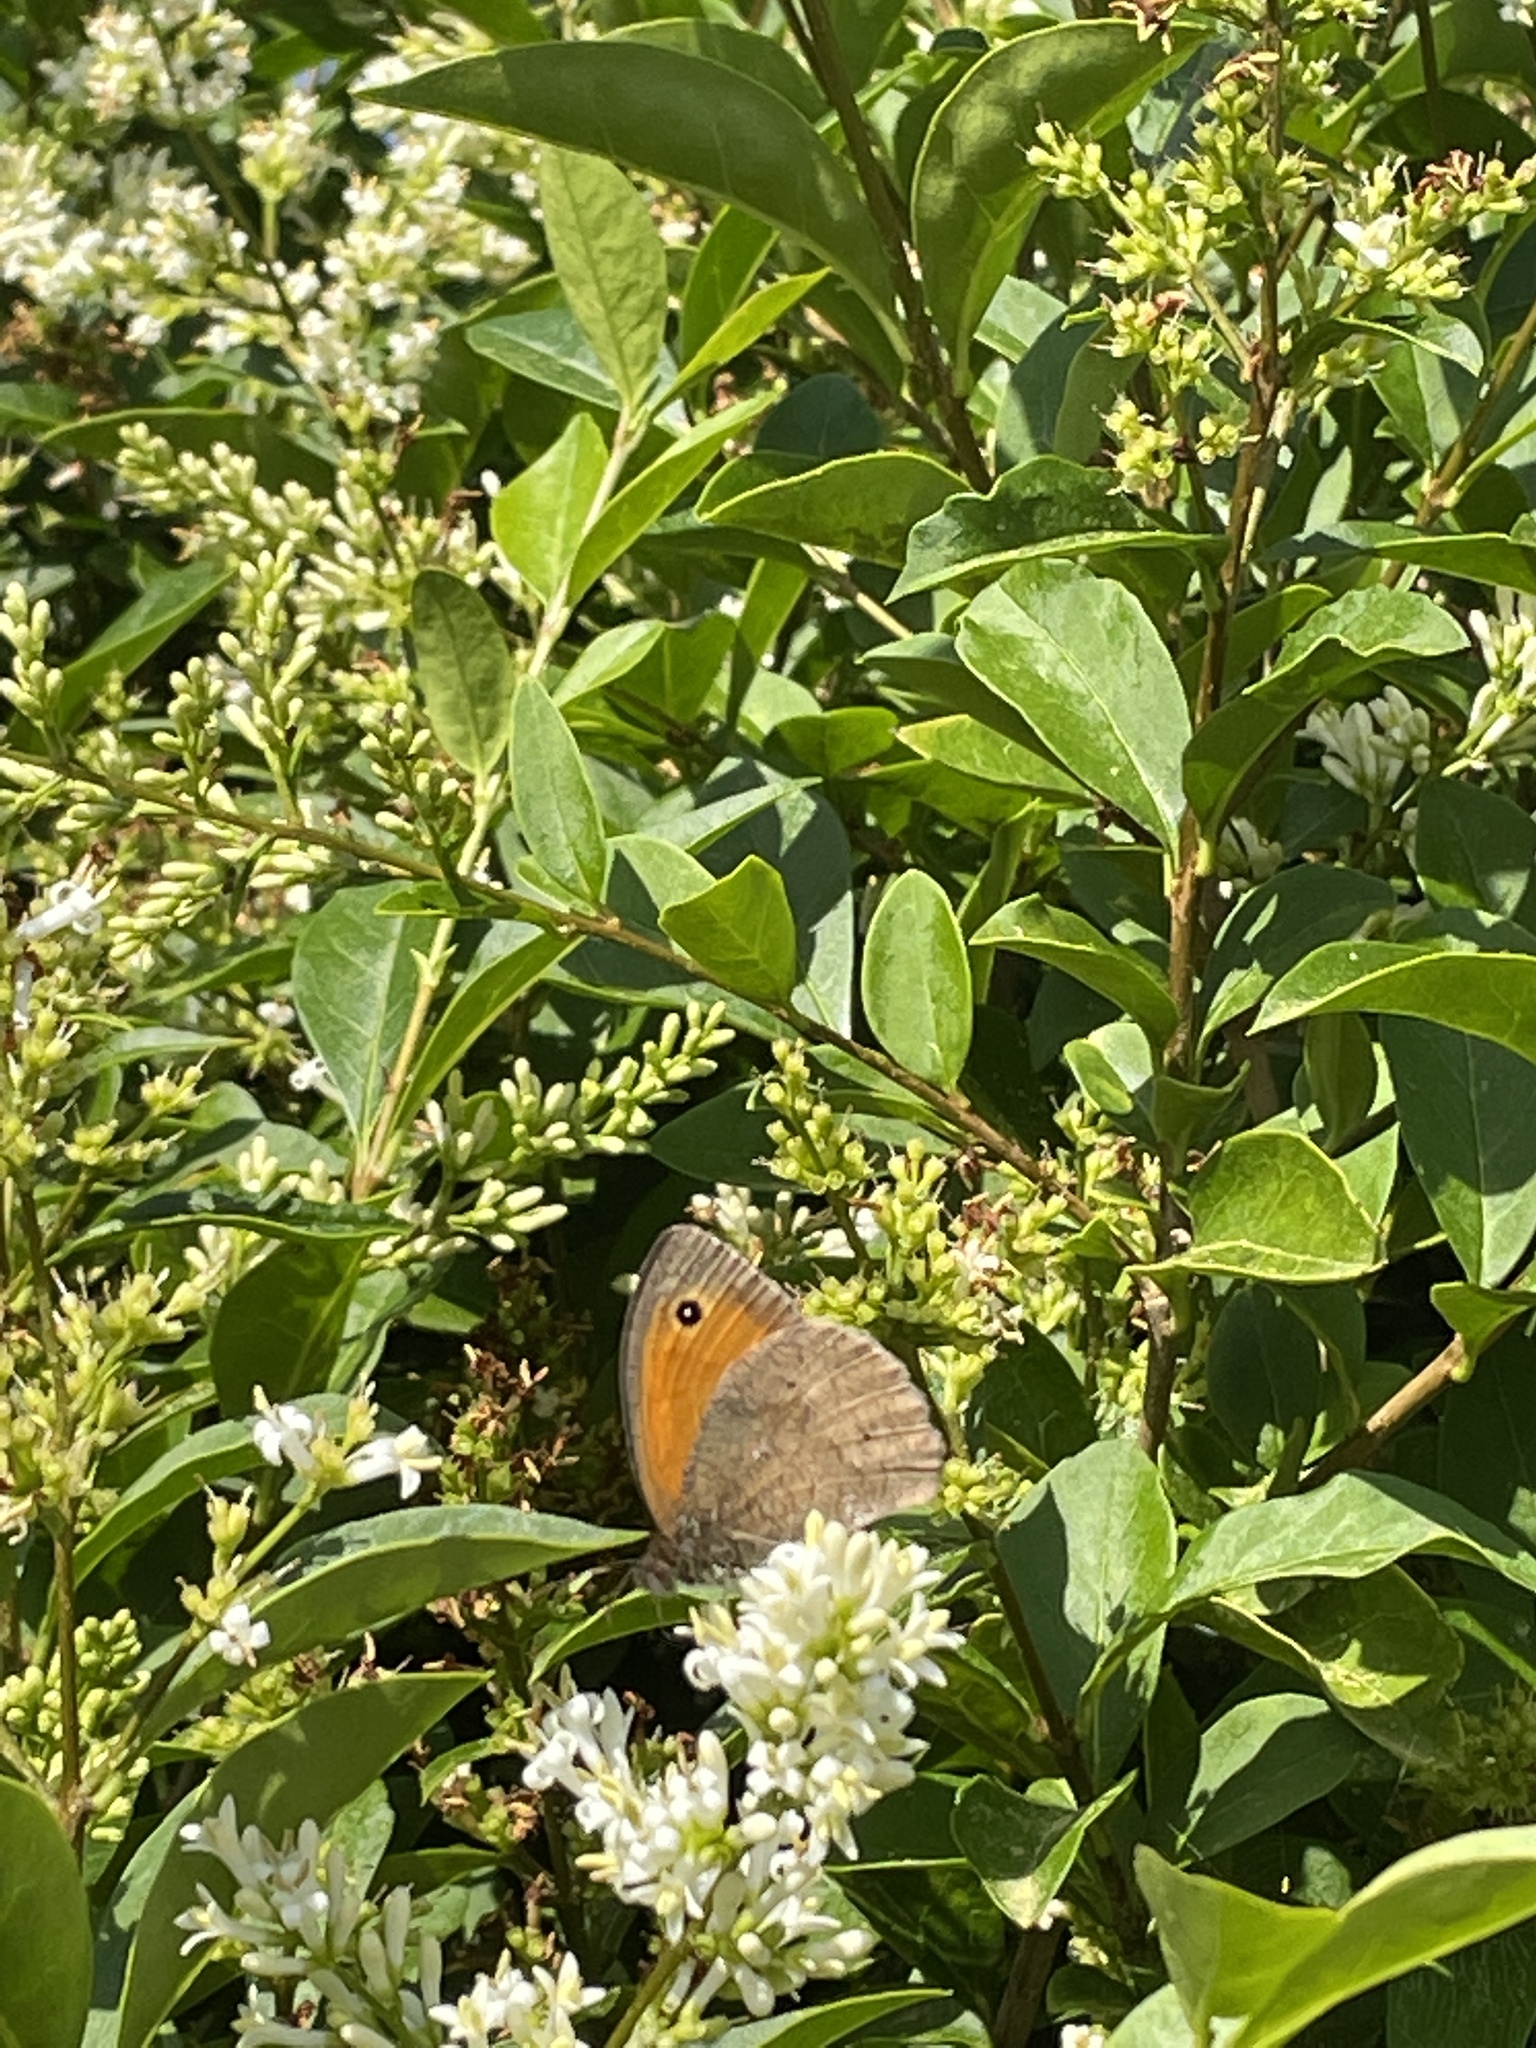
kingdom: Animalia
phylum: Arthropoda
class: Insecta
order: Lepidoptera
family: Nymphalidae
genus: Maniola
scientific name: Maniola jurtina
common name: Meadow brown
